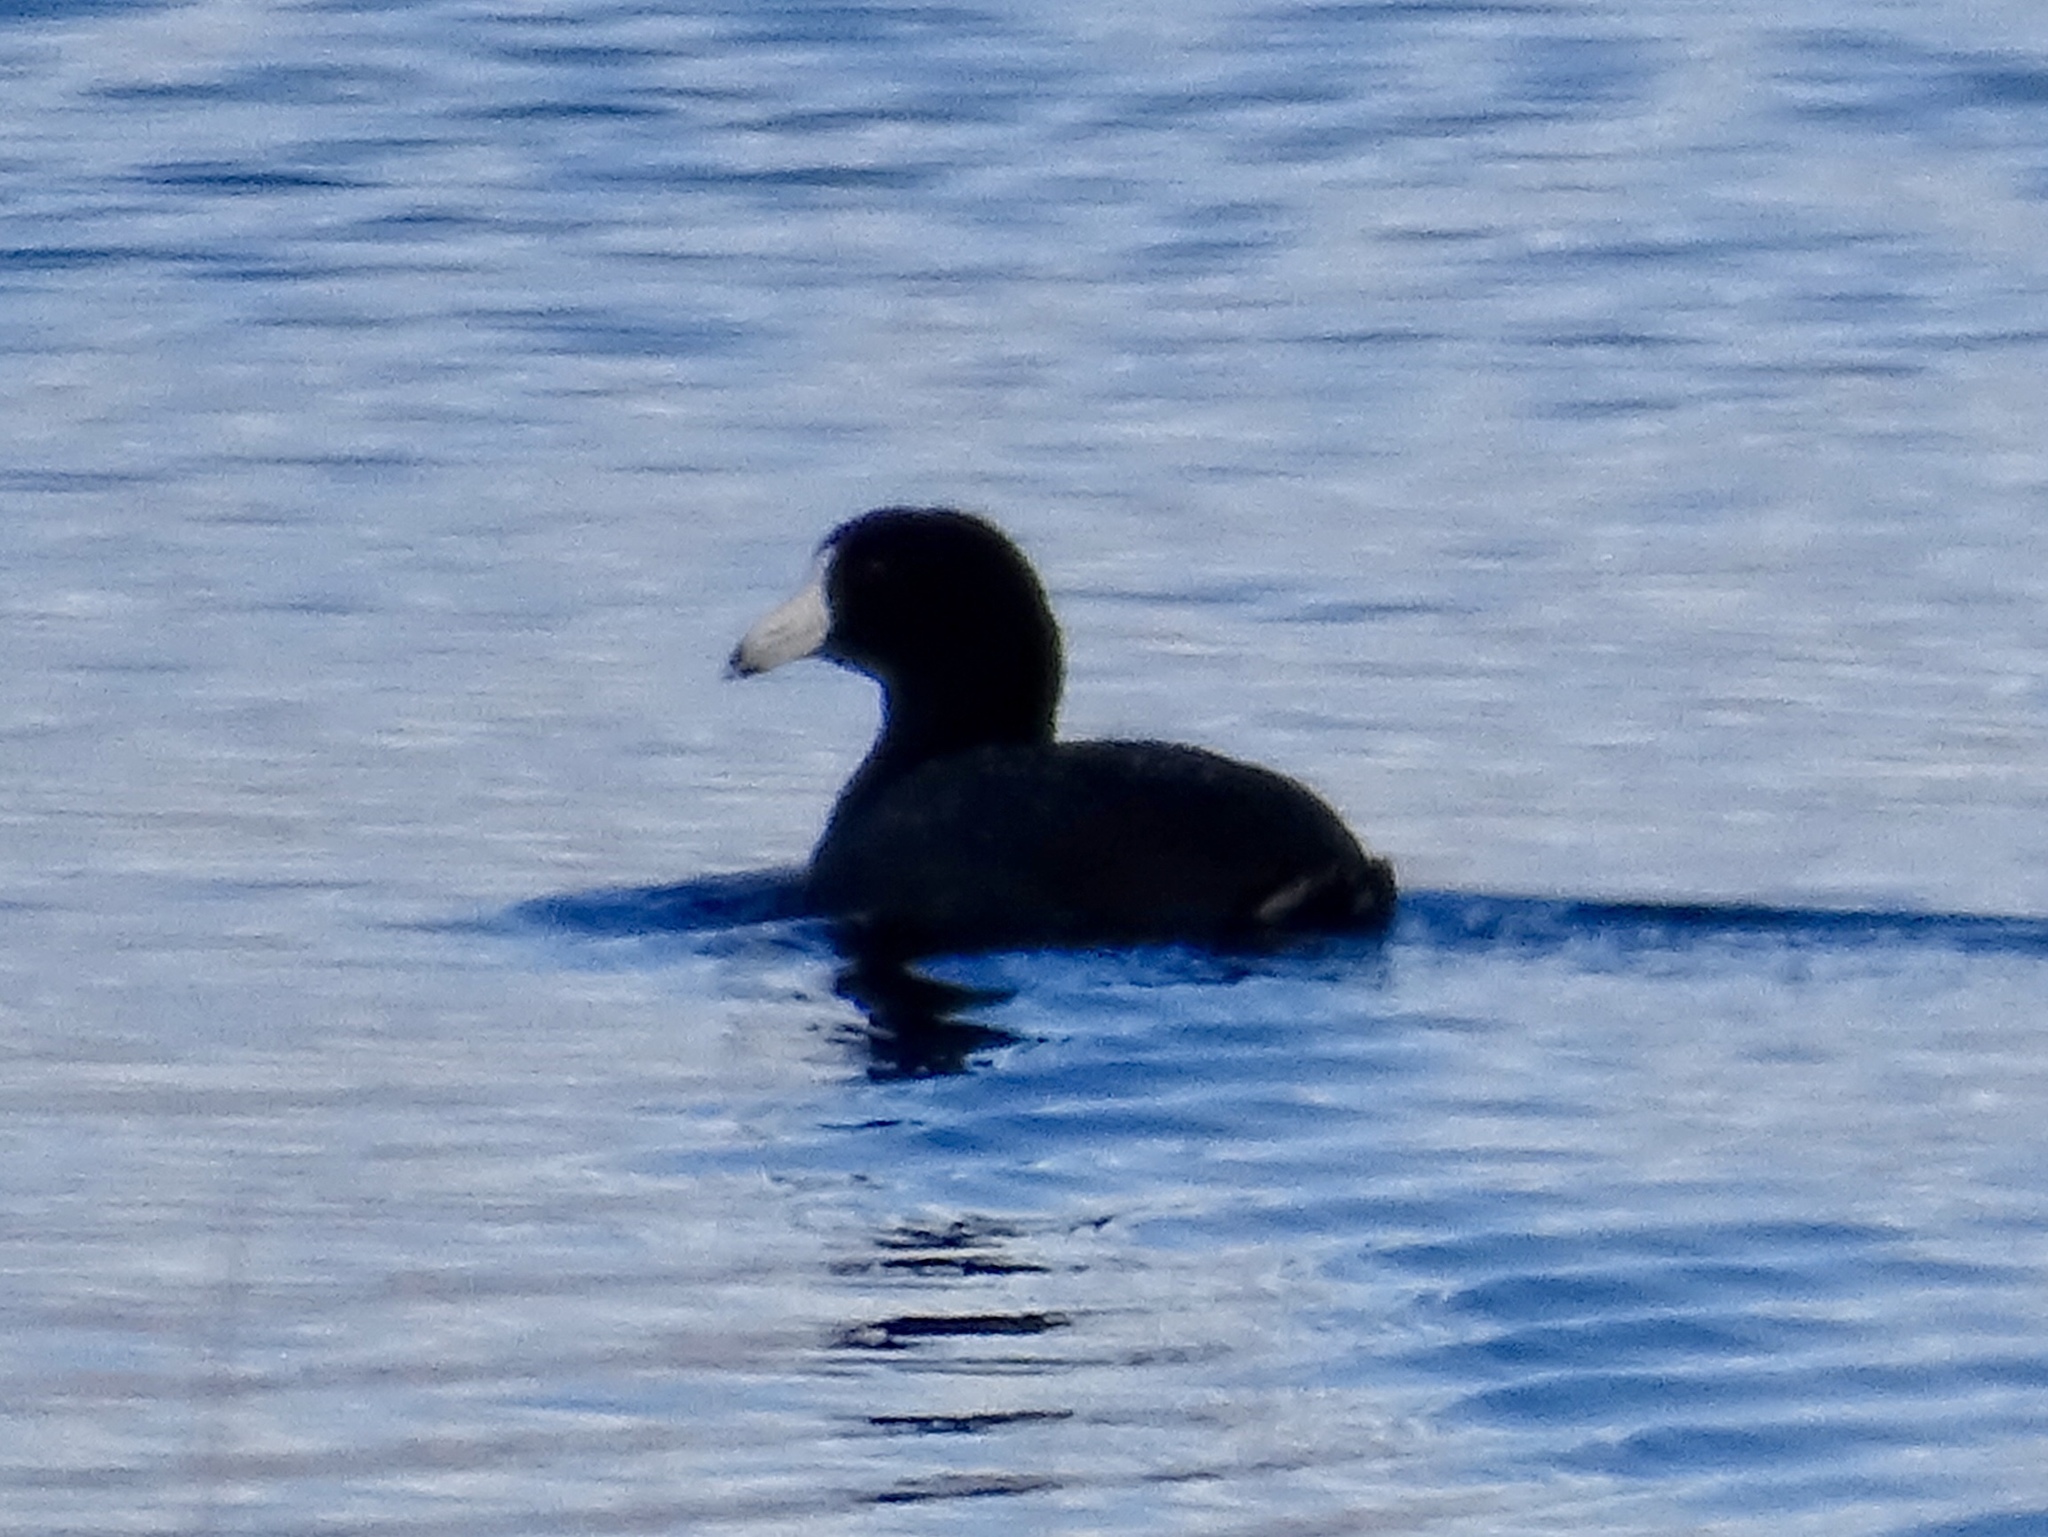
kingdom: Animalia
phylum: Chordata
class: Aves
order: Gruiformes
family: Rallidae
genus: Fulica
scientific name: Fulica americana
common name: American coot
